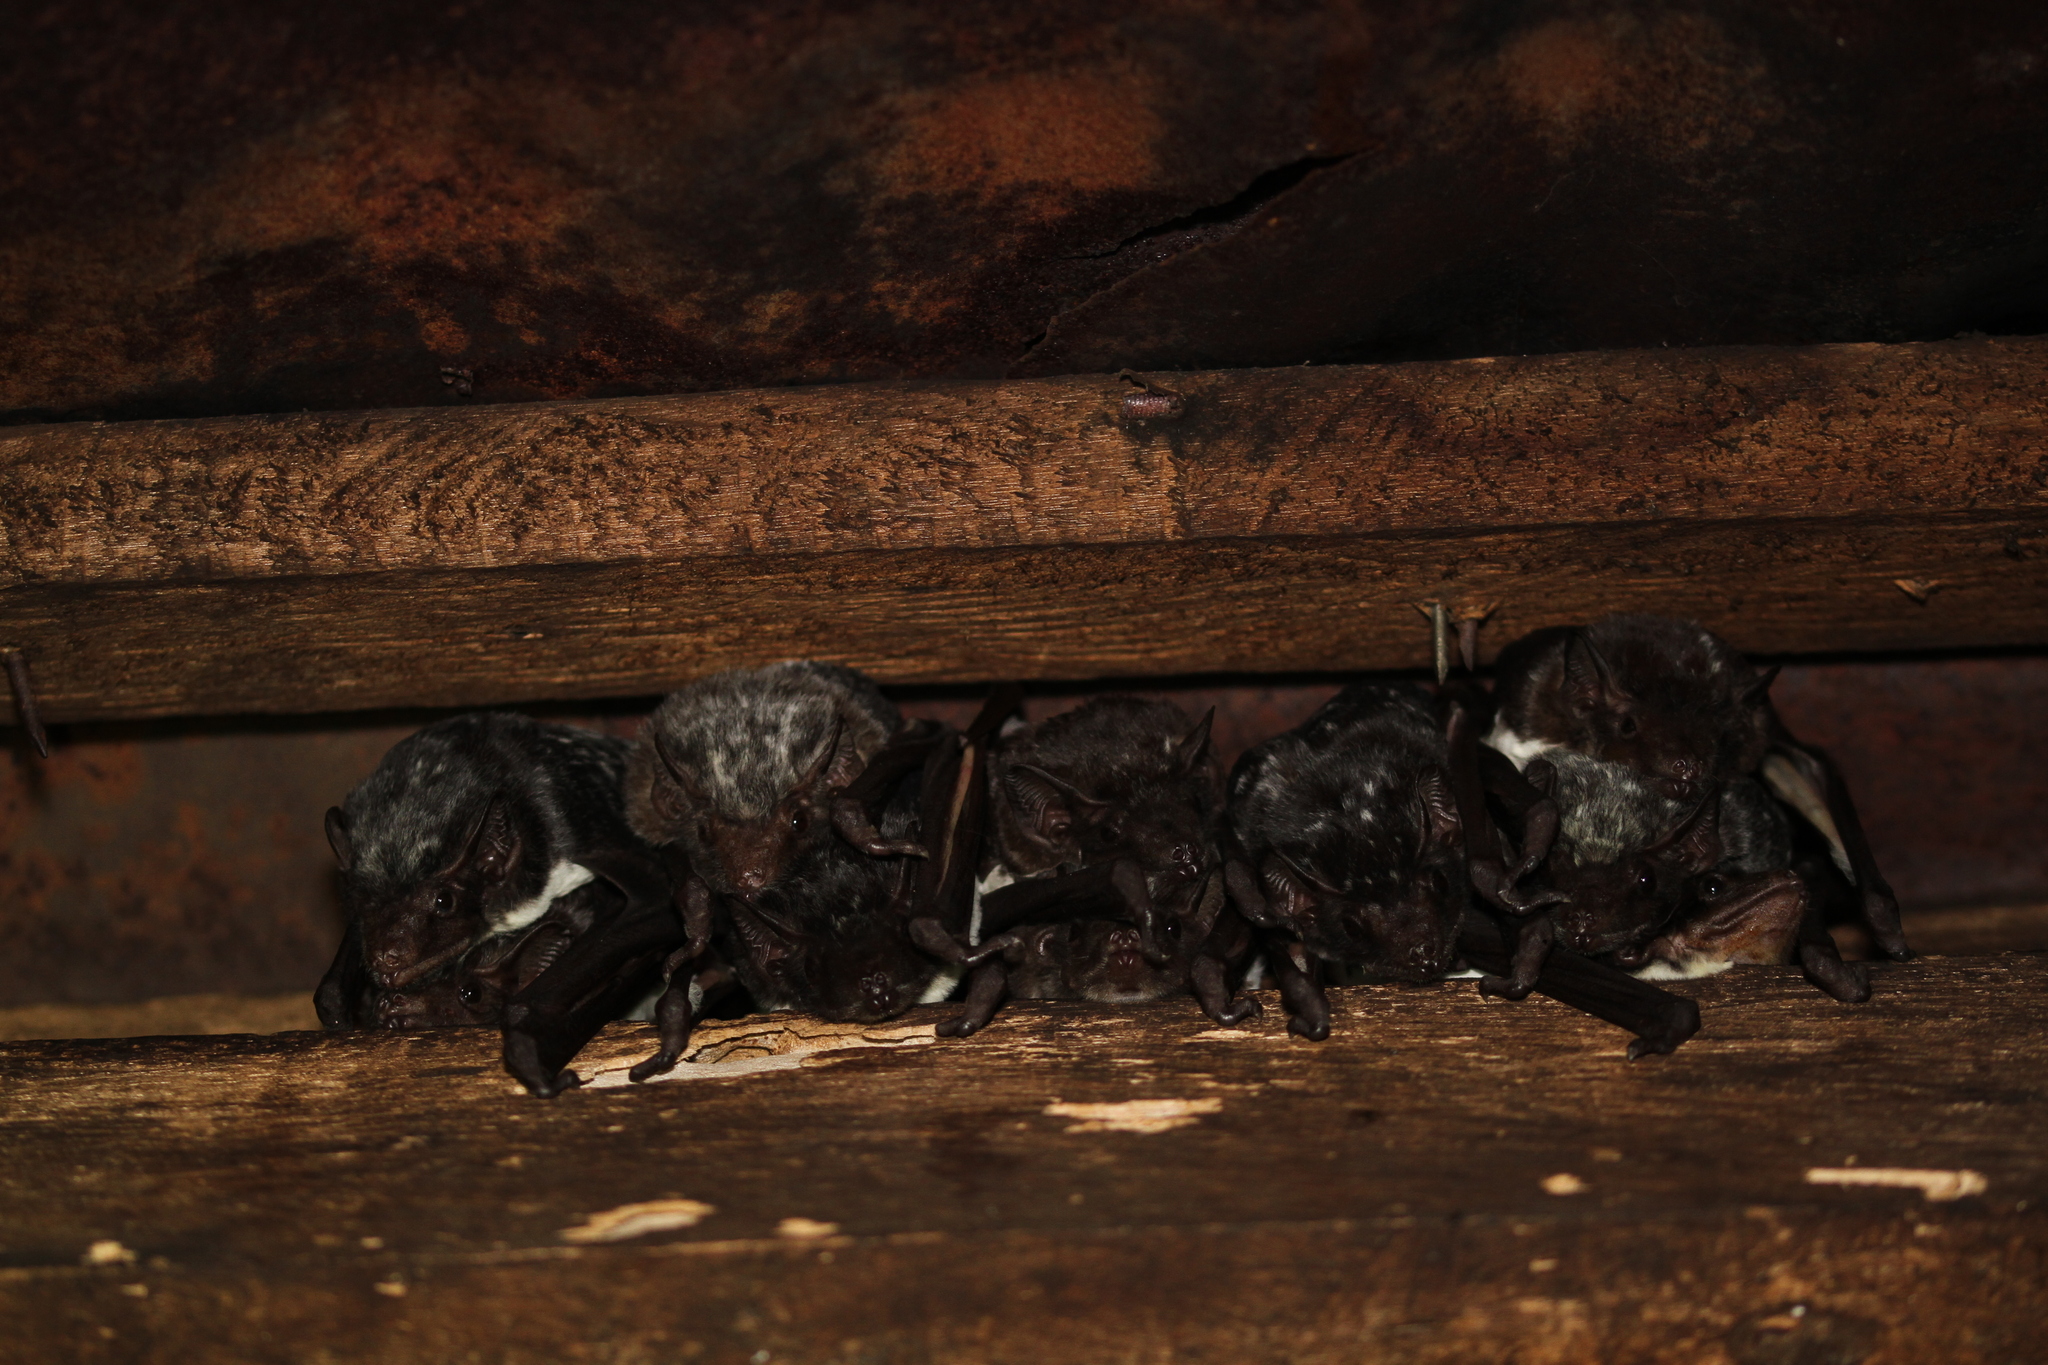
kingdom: Animalia
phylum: Chordata
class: Mammalia
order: Chiroptera
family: Emballonuridae
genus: Saccolaimus
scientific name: Saccolaimus saccolaimus
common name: Naked-rumped pouched bat
